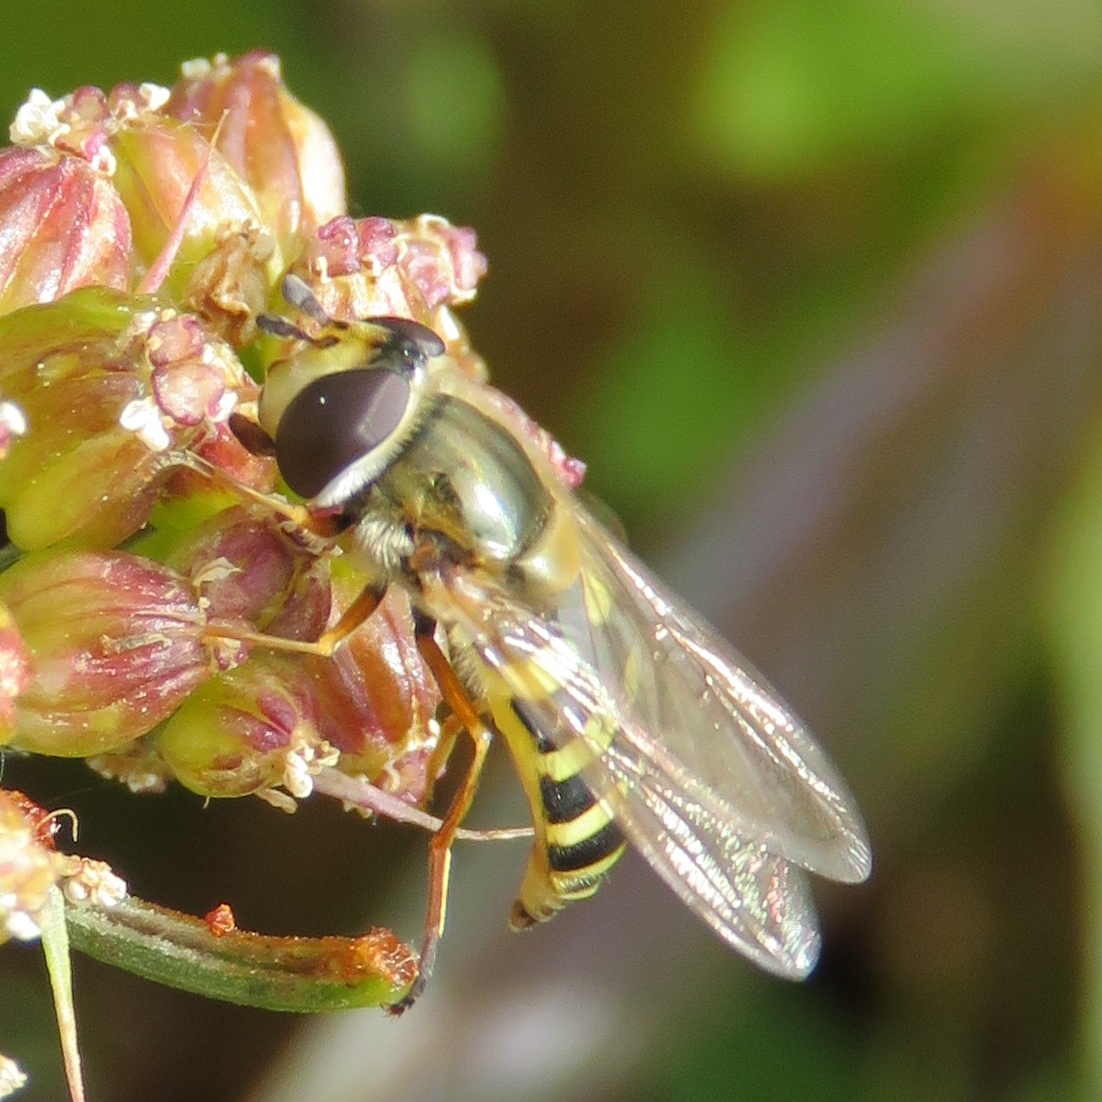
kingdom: Animalia
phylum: Arthropoda
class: Insecta
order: Diptera
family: Syrphidae
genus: Eupeodes
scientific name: Eupeodes corollae
